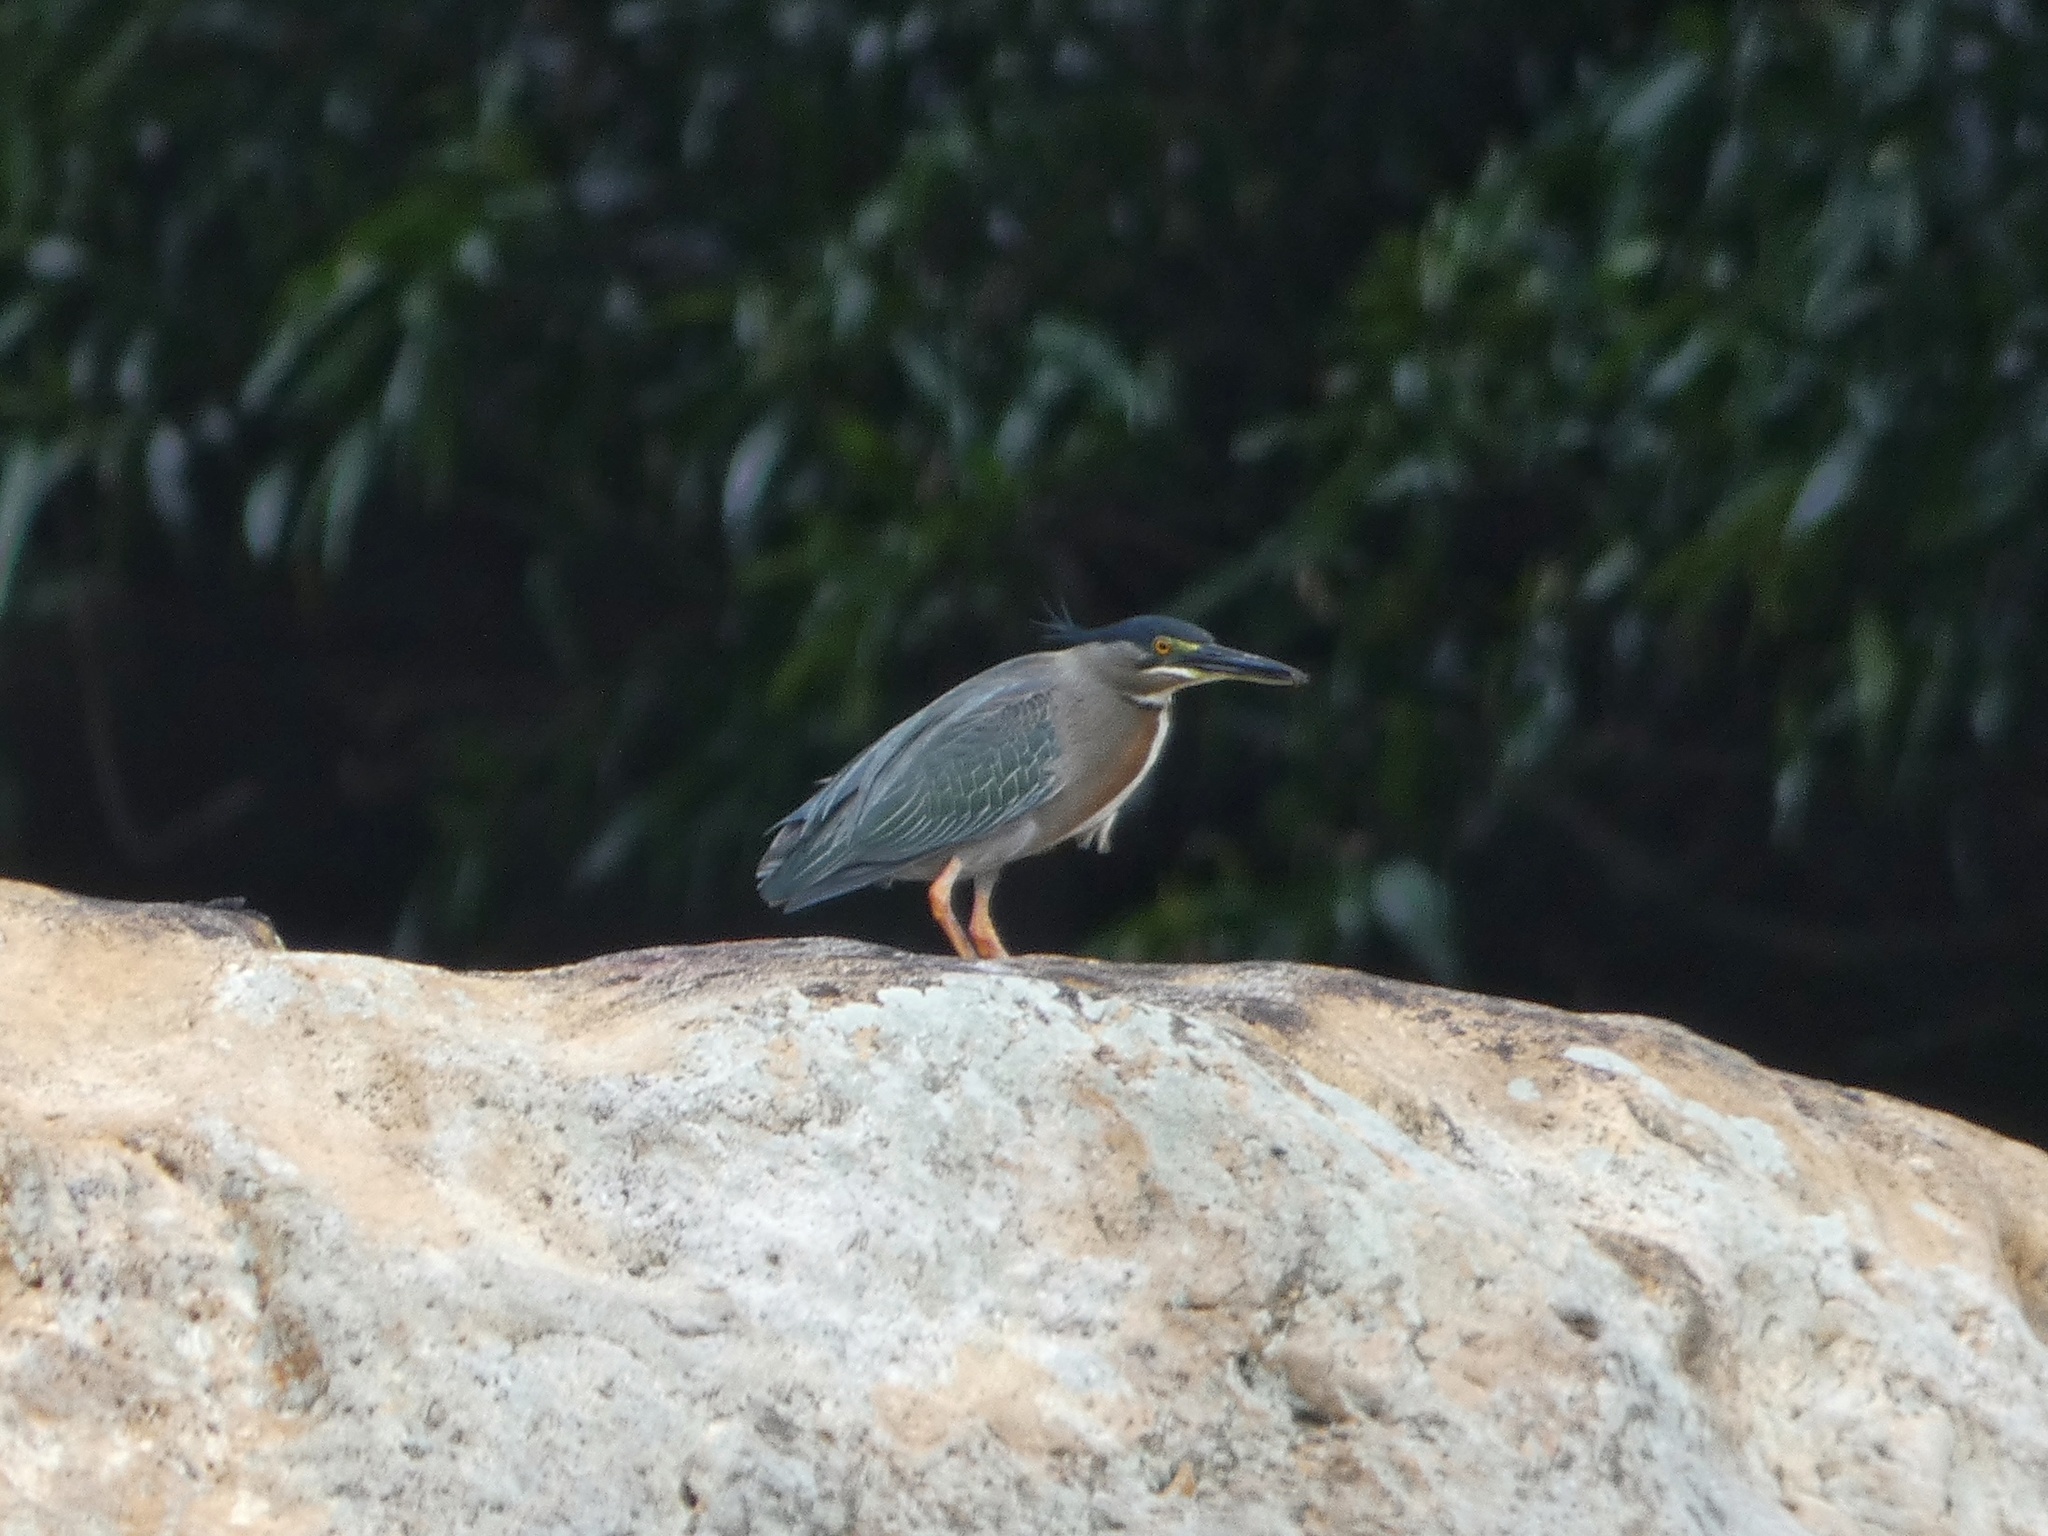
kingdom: Animalia
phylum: Chordata
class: Aves
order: Pelecaniformes
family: Ardeidae
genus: Butorides
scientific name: Butorides striata
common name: Striated heron
